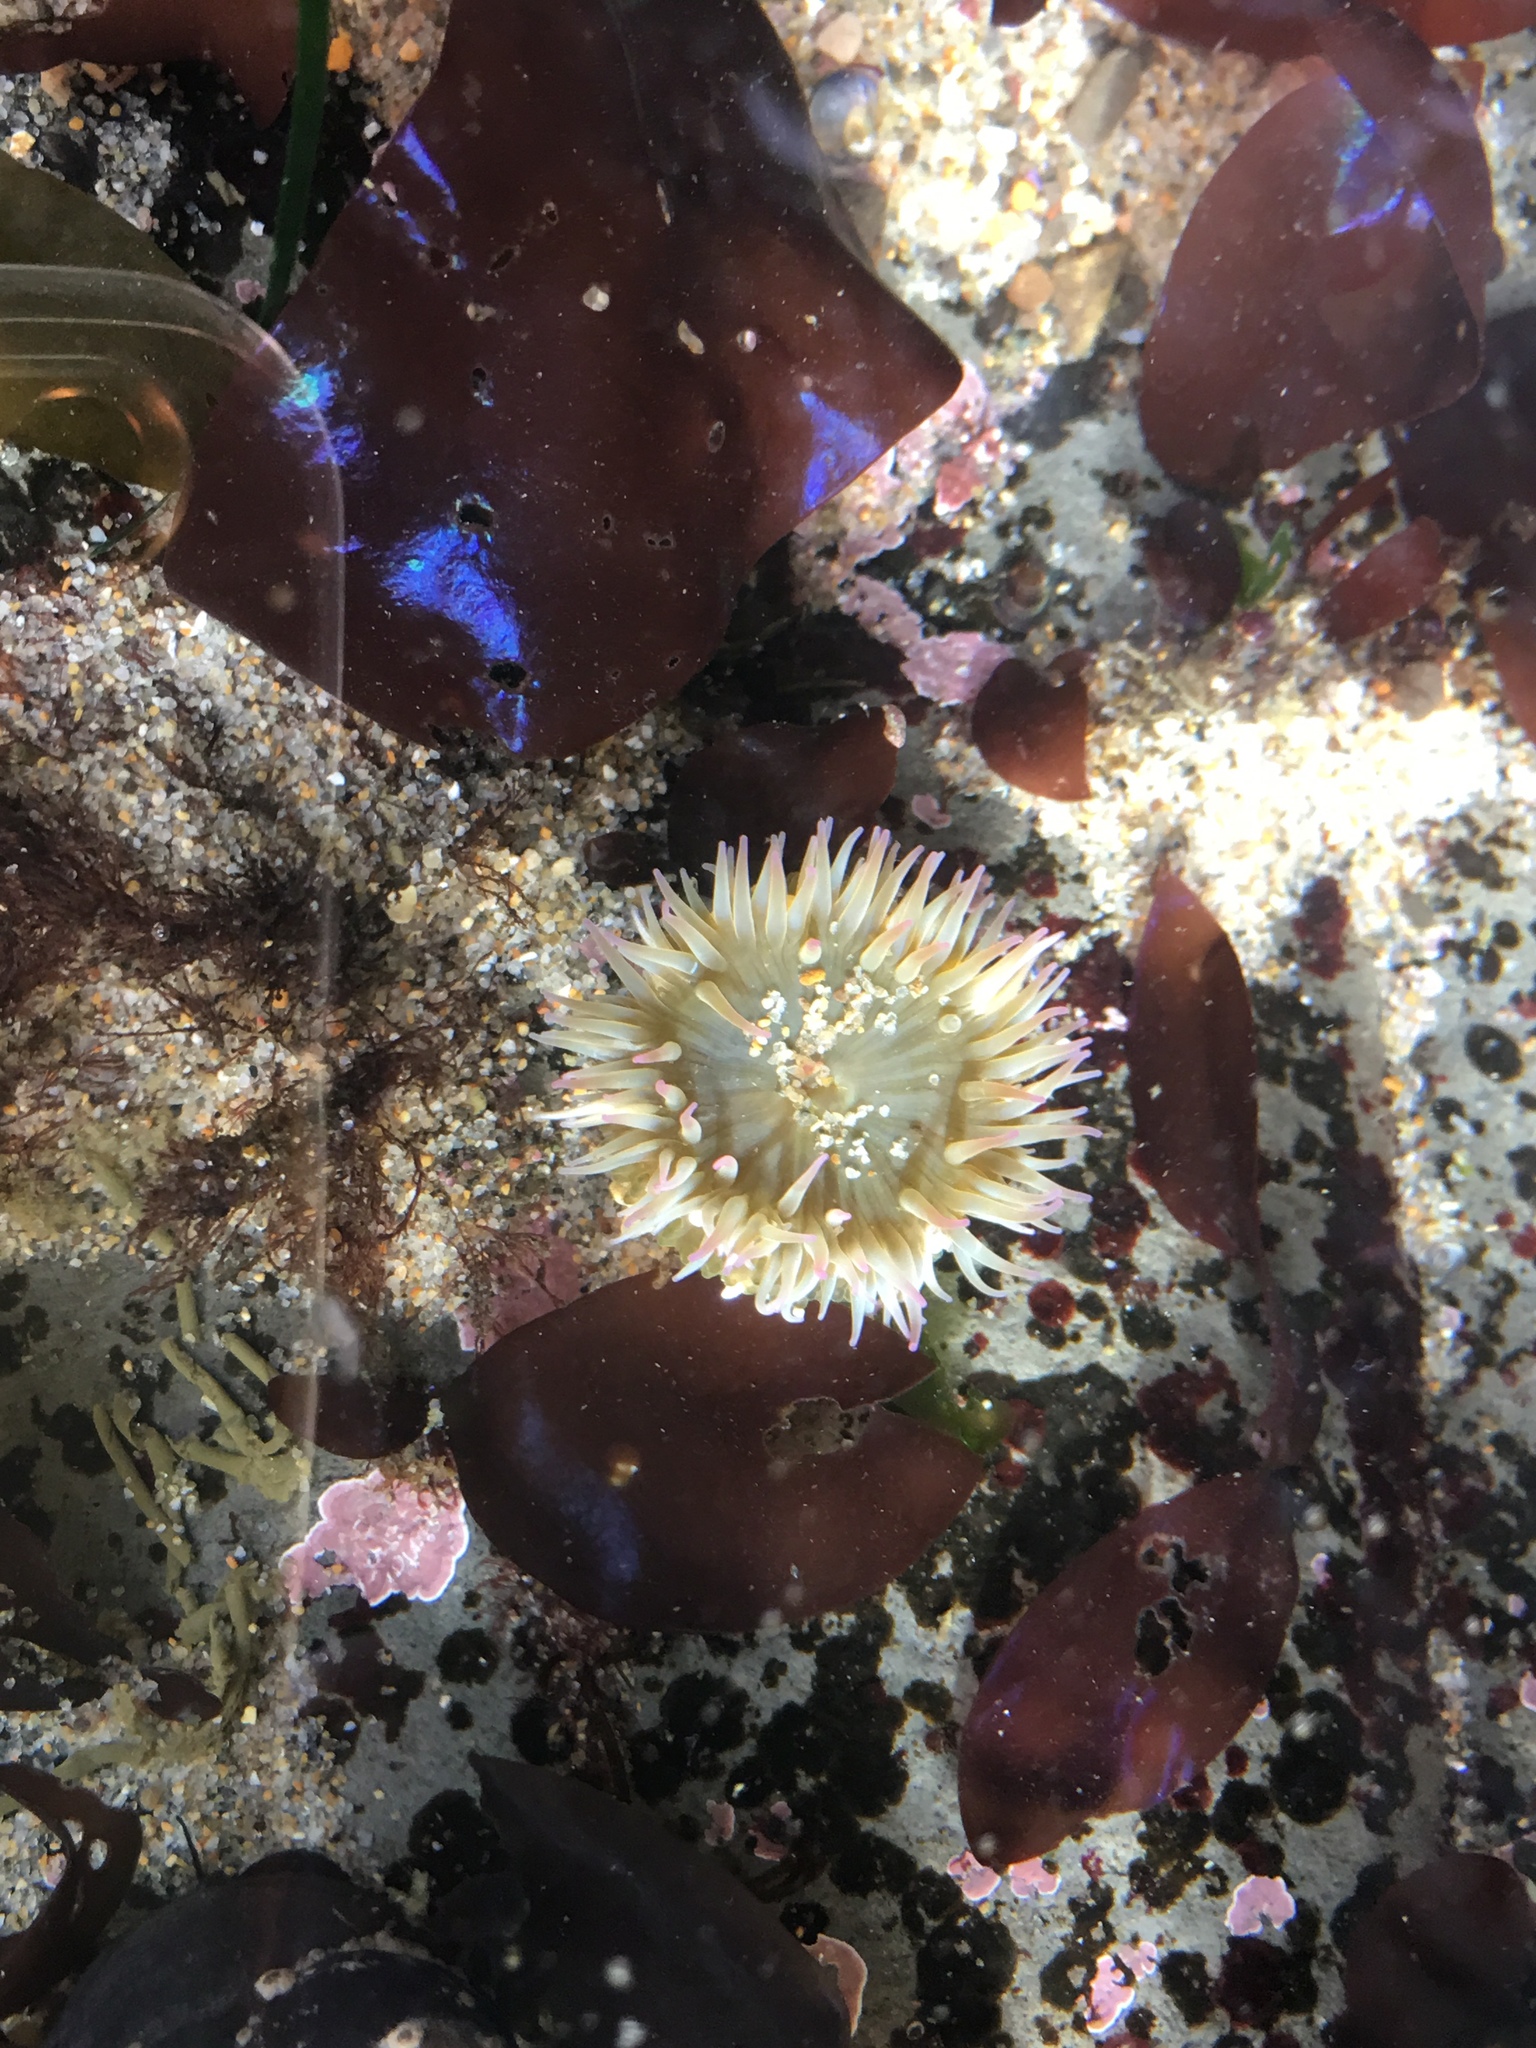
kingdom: Animalia
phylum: Cnidaria
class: Anthozoa
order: Actiniaria
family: Actiniidae
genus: Anthopleura
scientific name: Anthopleura elegantissima
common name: Clonal anemone
